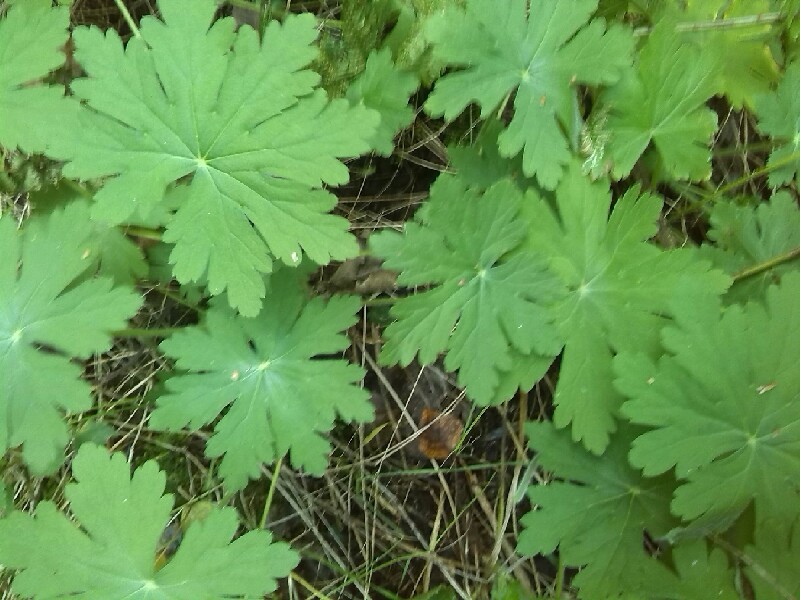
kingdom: Plantae
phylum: Tracheophyta
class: Magnoliopsida
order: Geraniales
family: Geraniaceae
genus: Geranium
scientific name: Geranium macrorrhizum
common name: Rock crane's-bill
